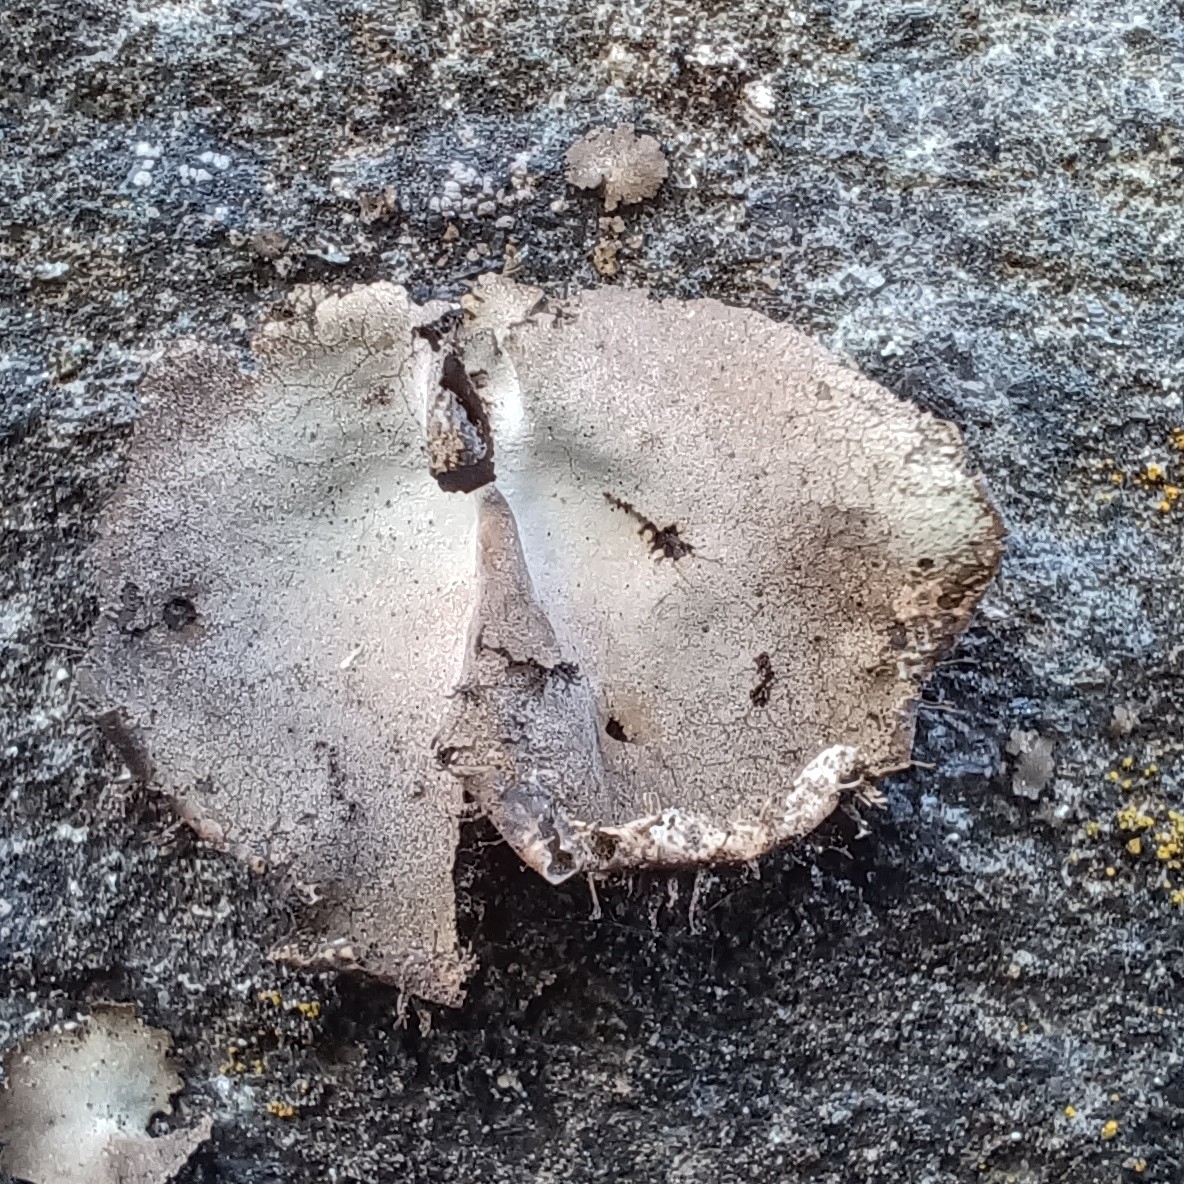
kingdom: Fungi
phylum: Ascomycota
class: Lecanoromycetes
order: Umbilicariales
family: Umbilicariaceae
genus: Umbilicaria
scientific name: Umbilicaria hirsuta
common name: Granulating rocktripe lichen
